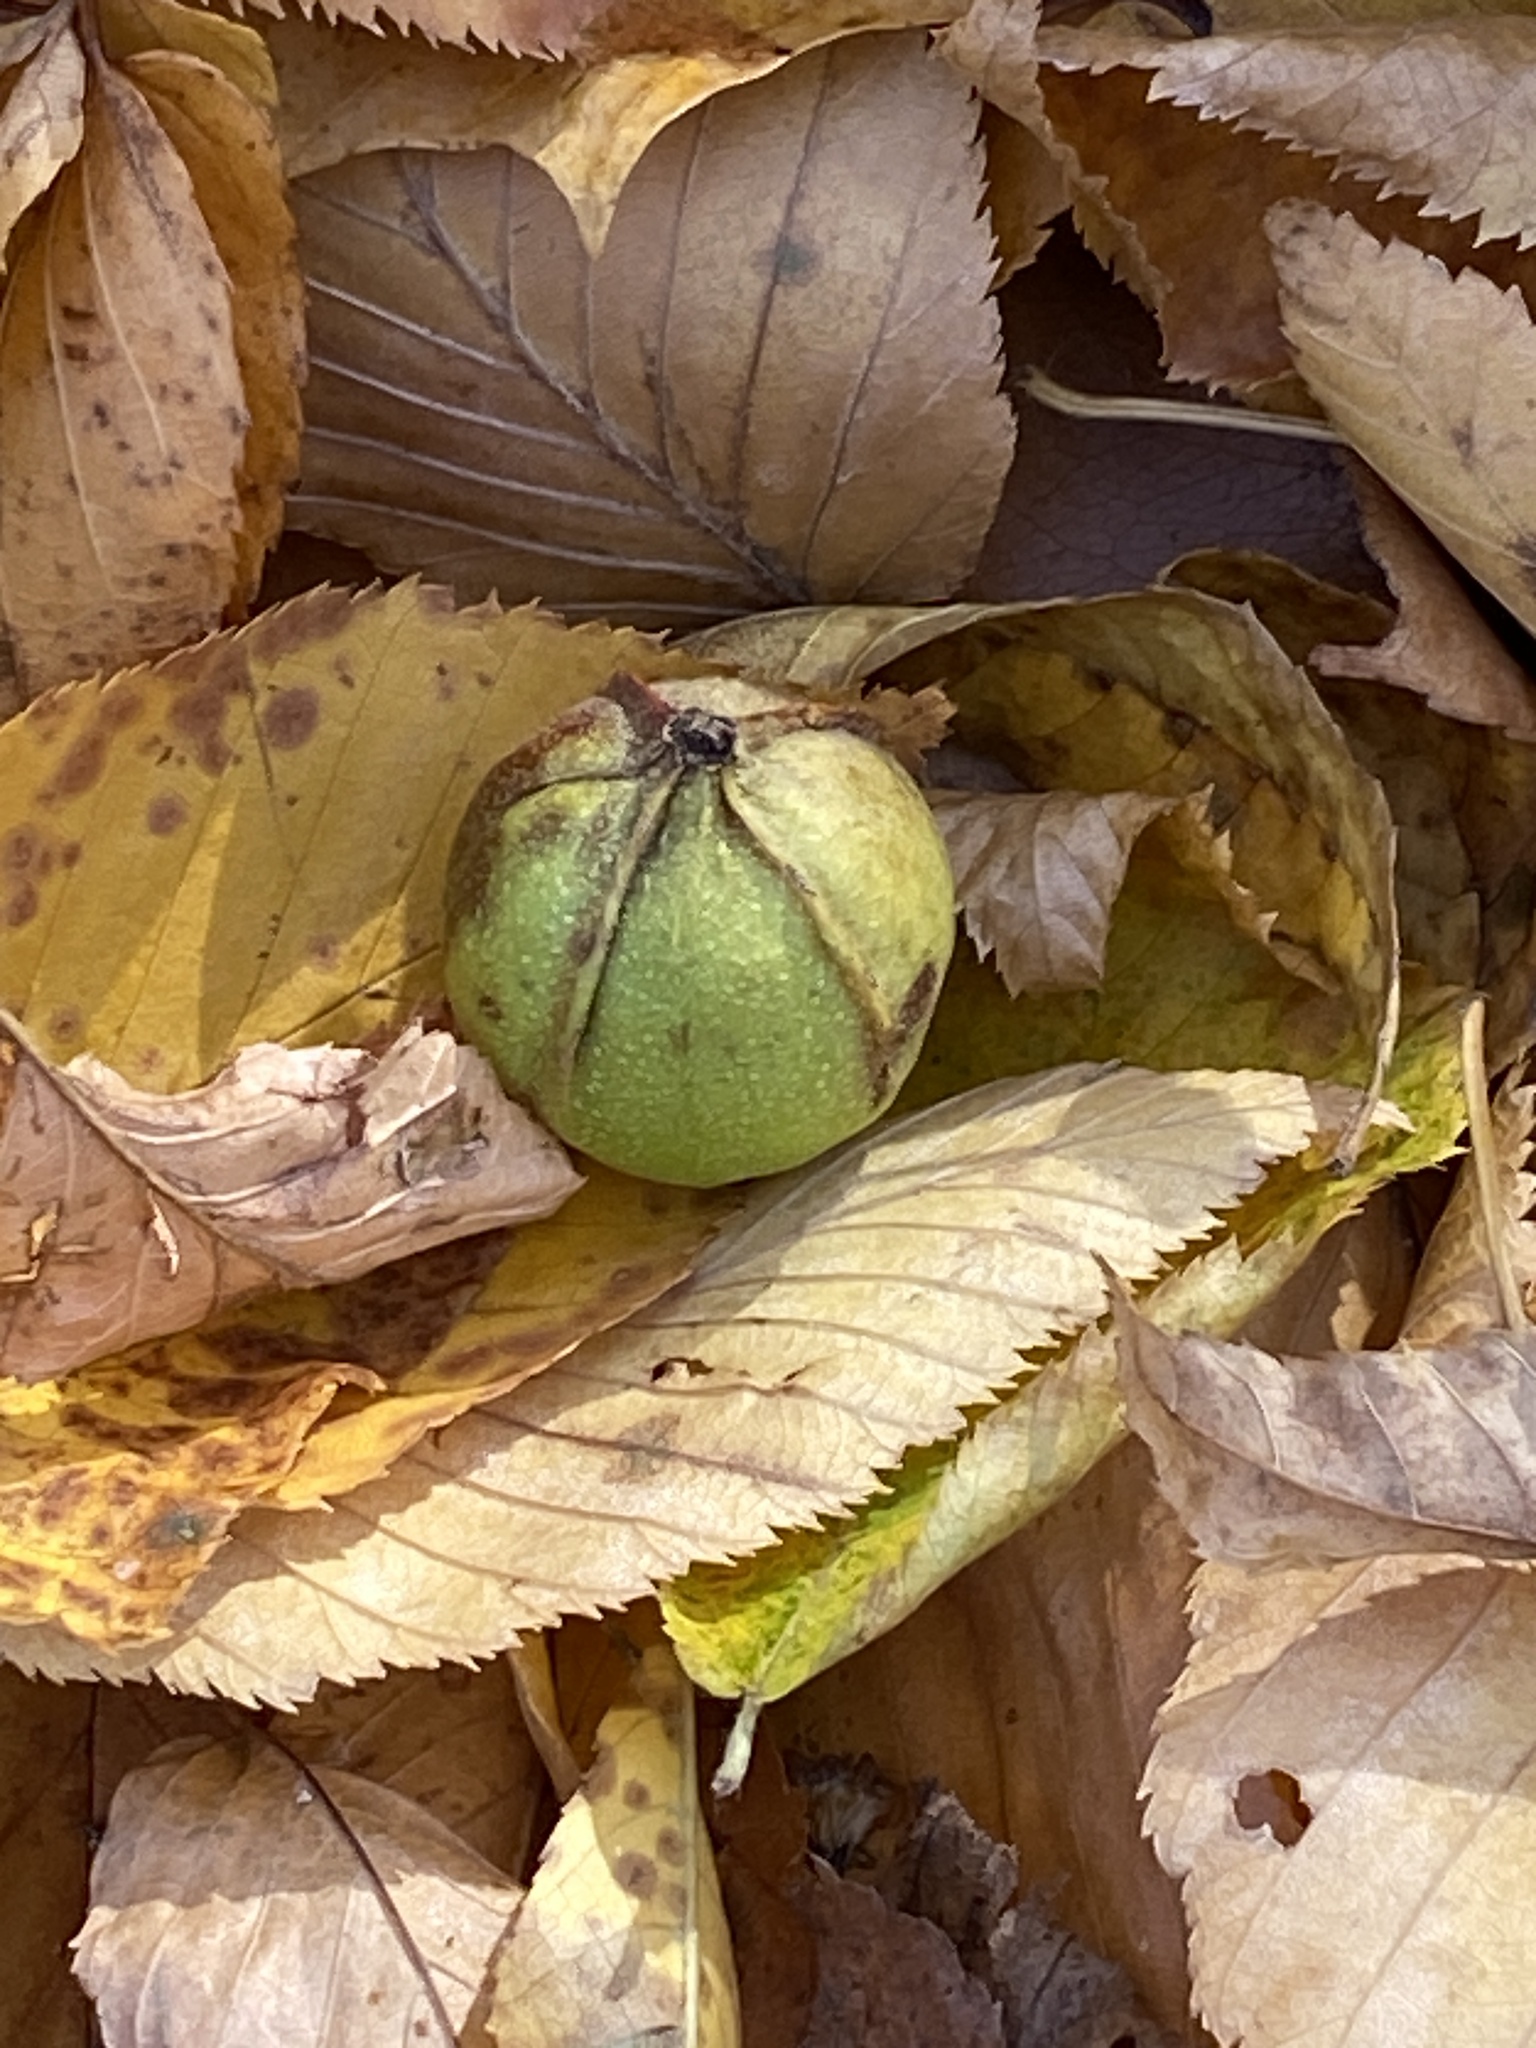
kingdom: Plantae
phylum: Tracheophyta
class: Magnoliopsida
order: Fagales
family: Juglandaceae
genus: Carya
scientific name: Carya cordiformis
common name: Bitternut hickory
